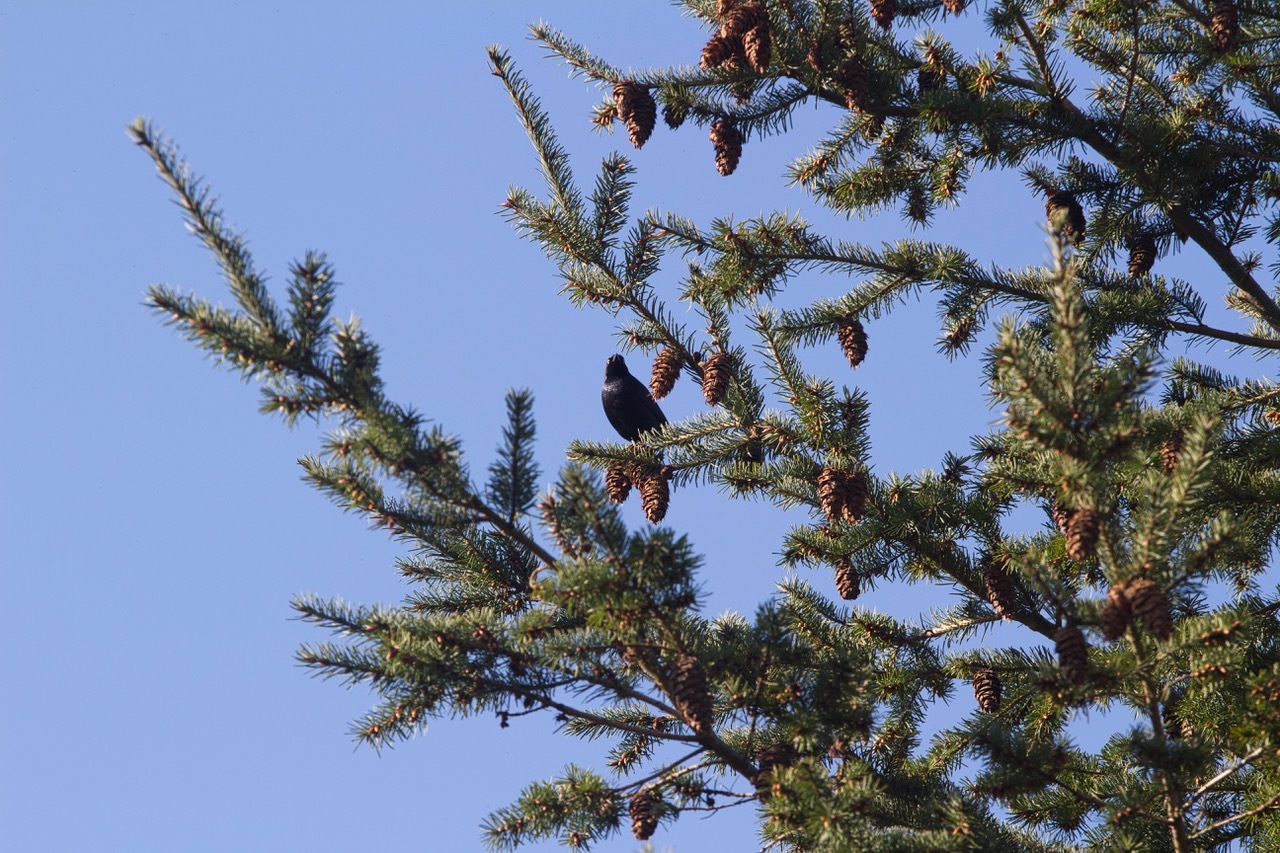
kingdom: Animalia
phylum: Chordata
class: Aves
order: Passeriformes
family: Icteridae
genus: Euphagus
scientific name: Euphagus cyanocephalus
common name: Brewer's blackbird
